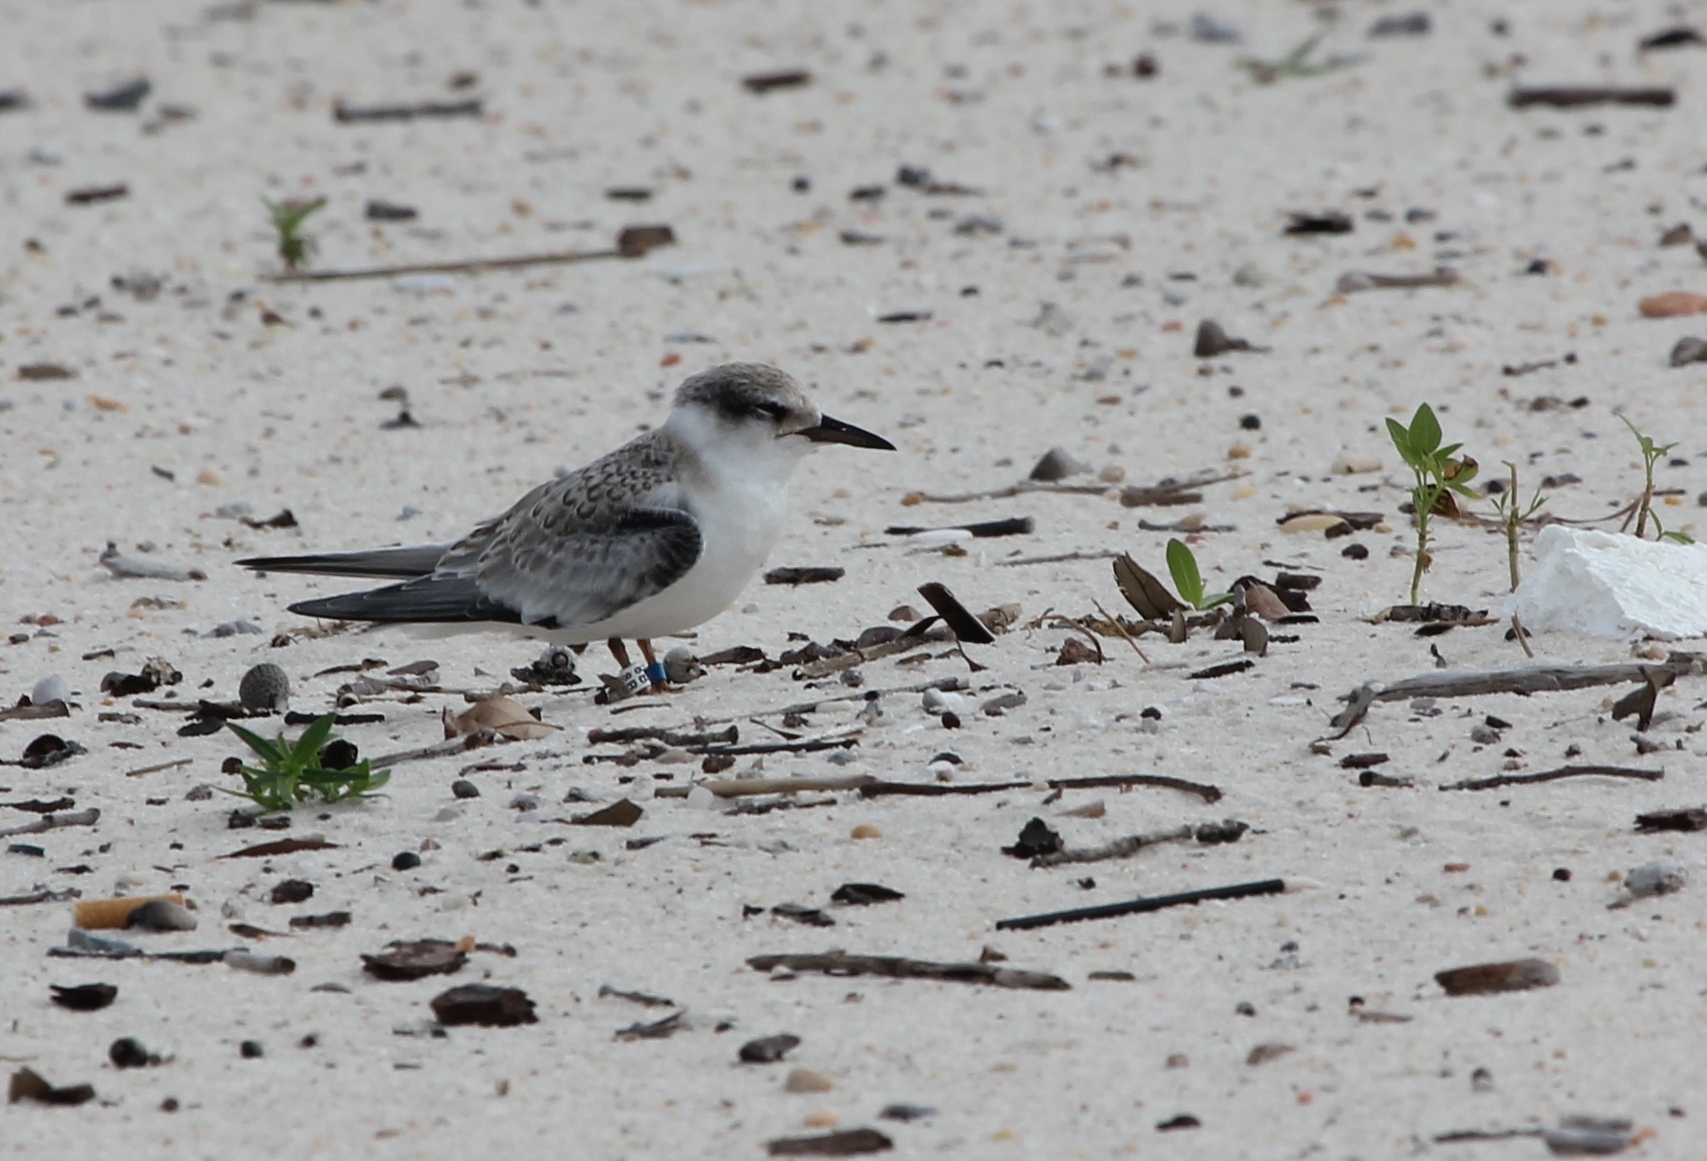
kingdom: Animalia
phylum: Chordata
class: Aves
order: Charadriiformes
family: Laridae
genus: Sternula
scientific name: Sternula antillarum
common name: Least tern
